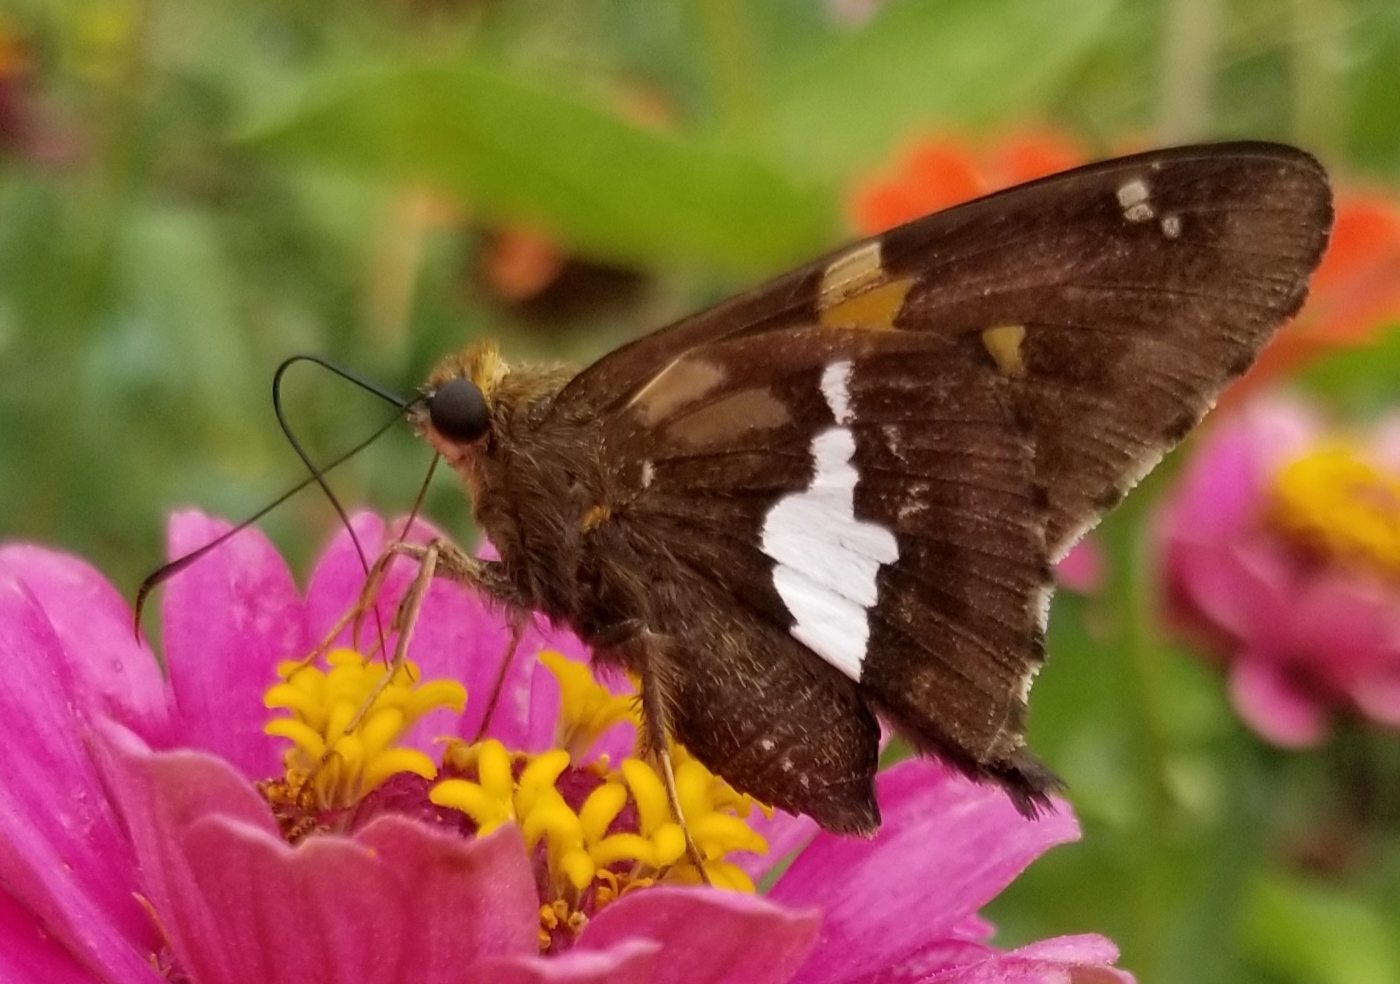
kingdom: Animalia
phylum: Arthropoda
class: Insecta
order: Lepidoptera
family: Hesperiidae
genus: Epargyreus
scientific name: Epargyreus clarus
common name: Silver-spotted skipper
